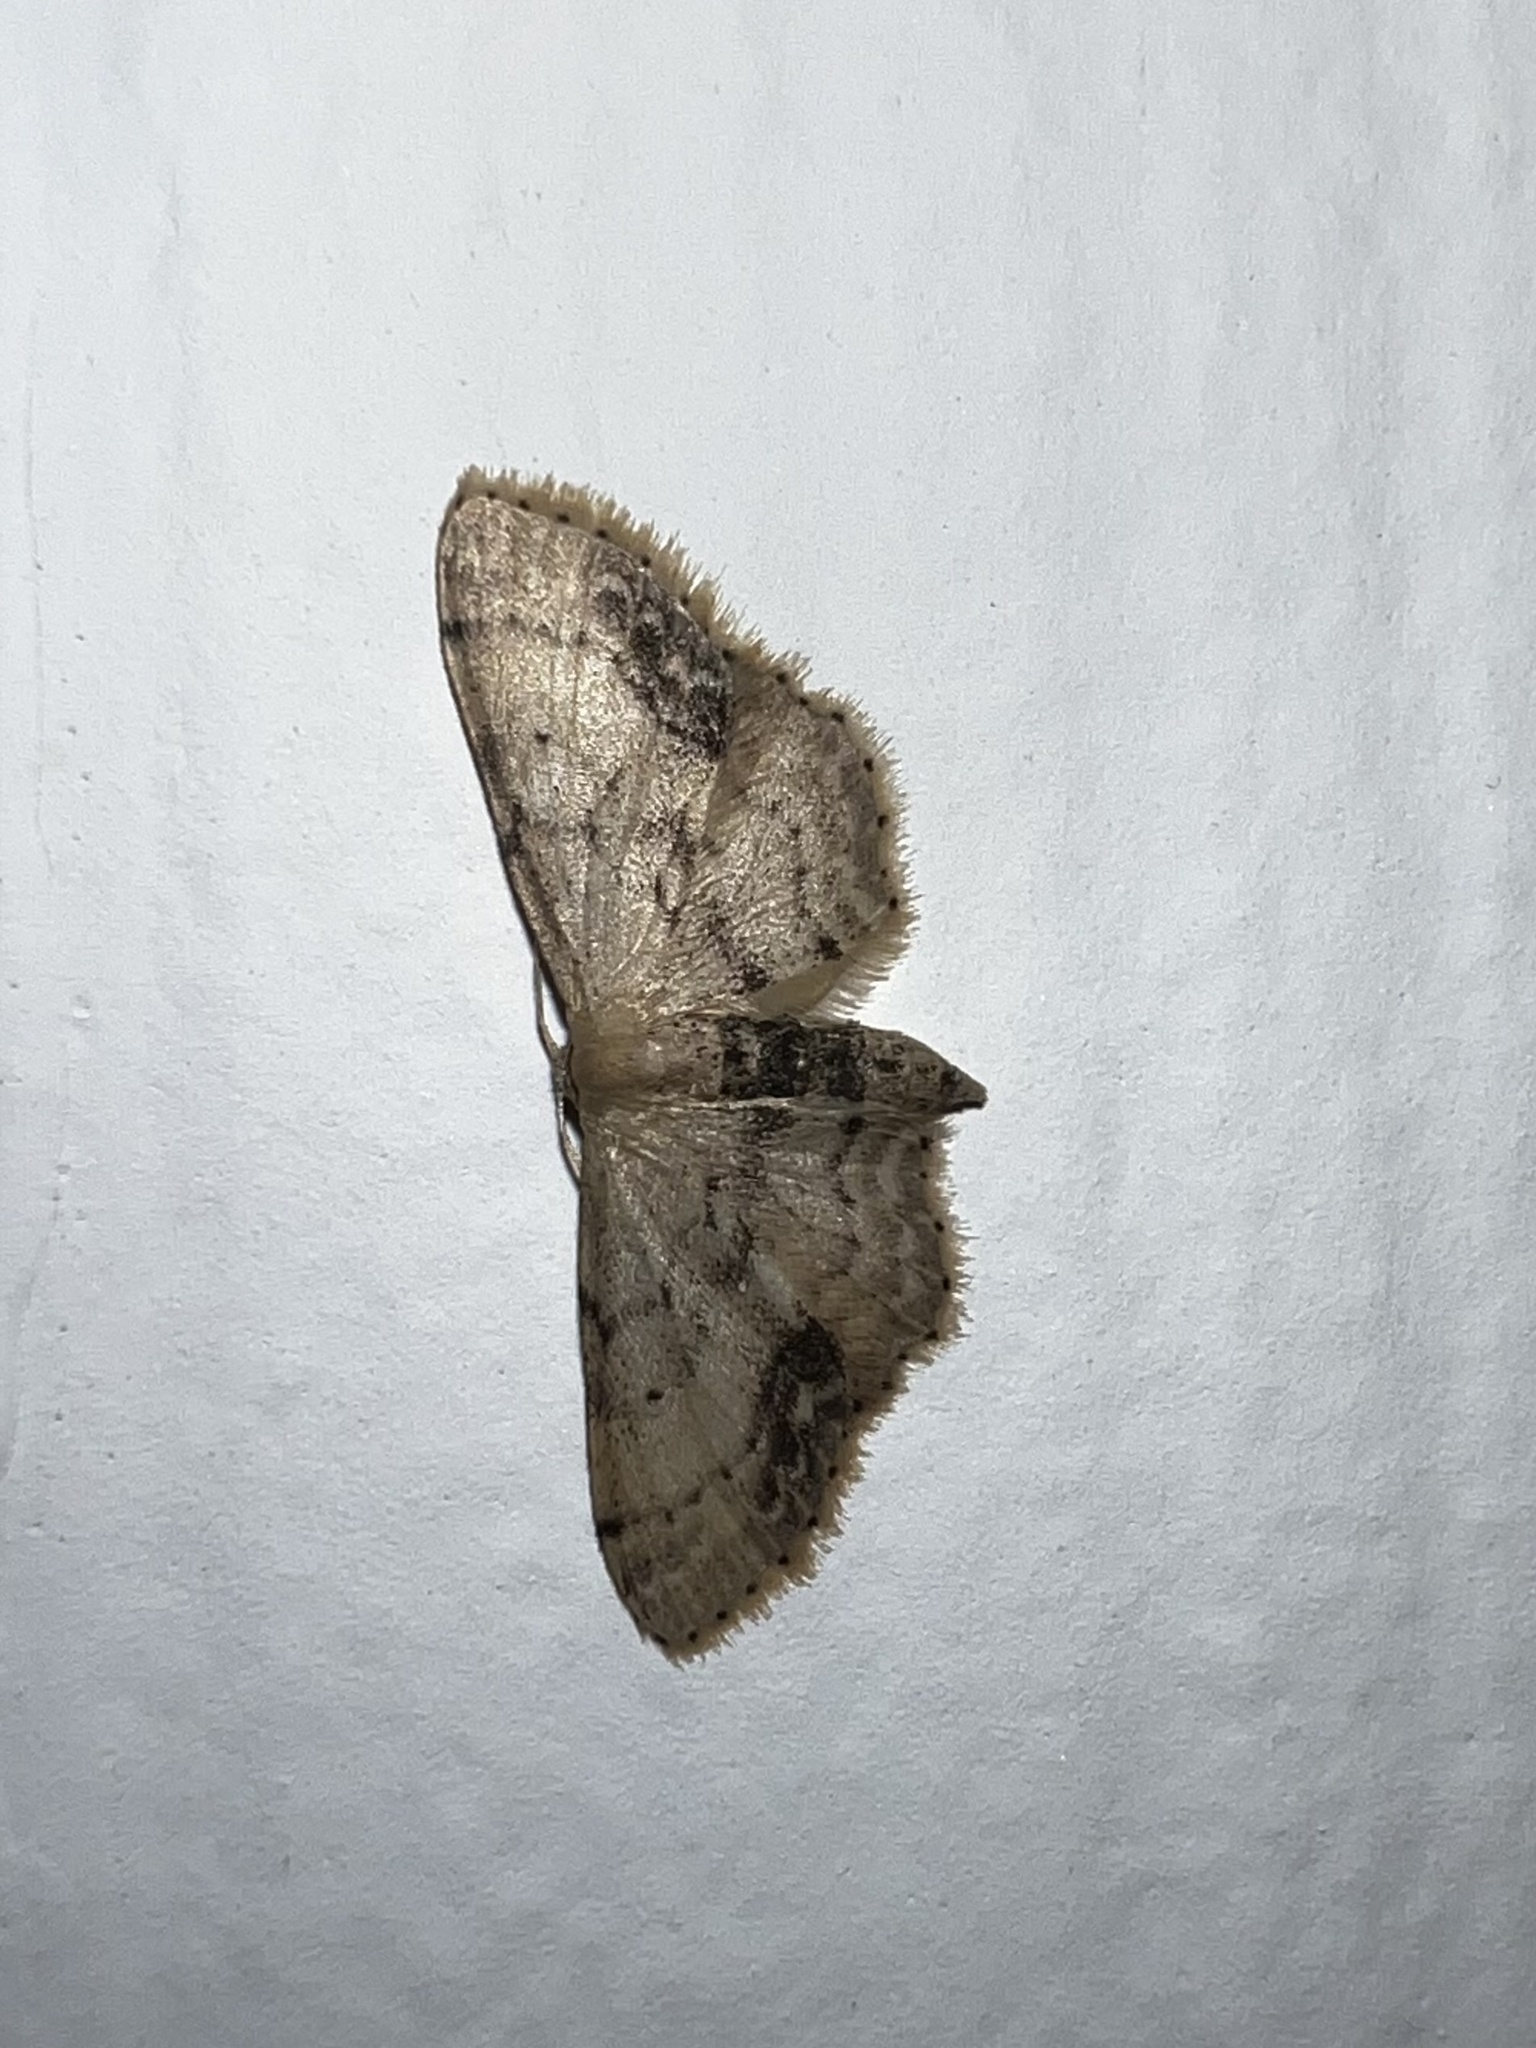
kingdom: Animalia
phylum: Arthropoda
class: Insecta
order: Lepidoptera
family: Geometridae
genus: Idaea
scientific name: Idaea dimidiata
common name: Single-dotted wave
